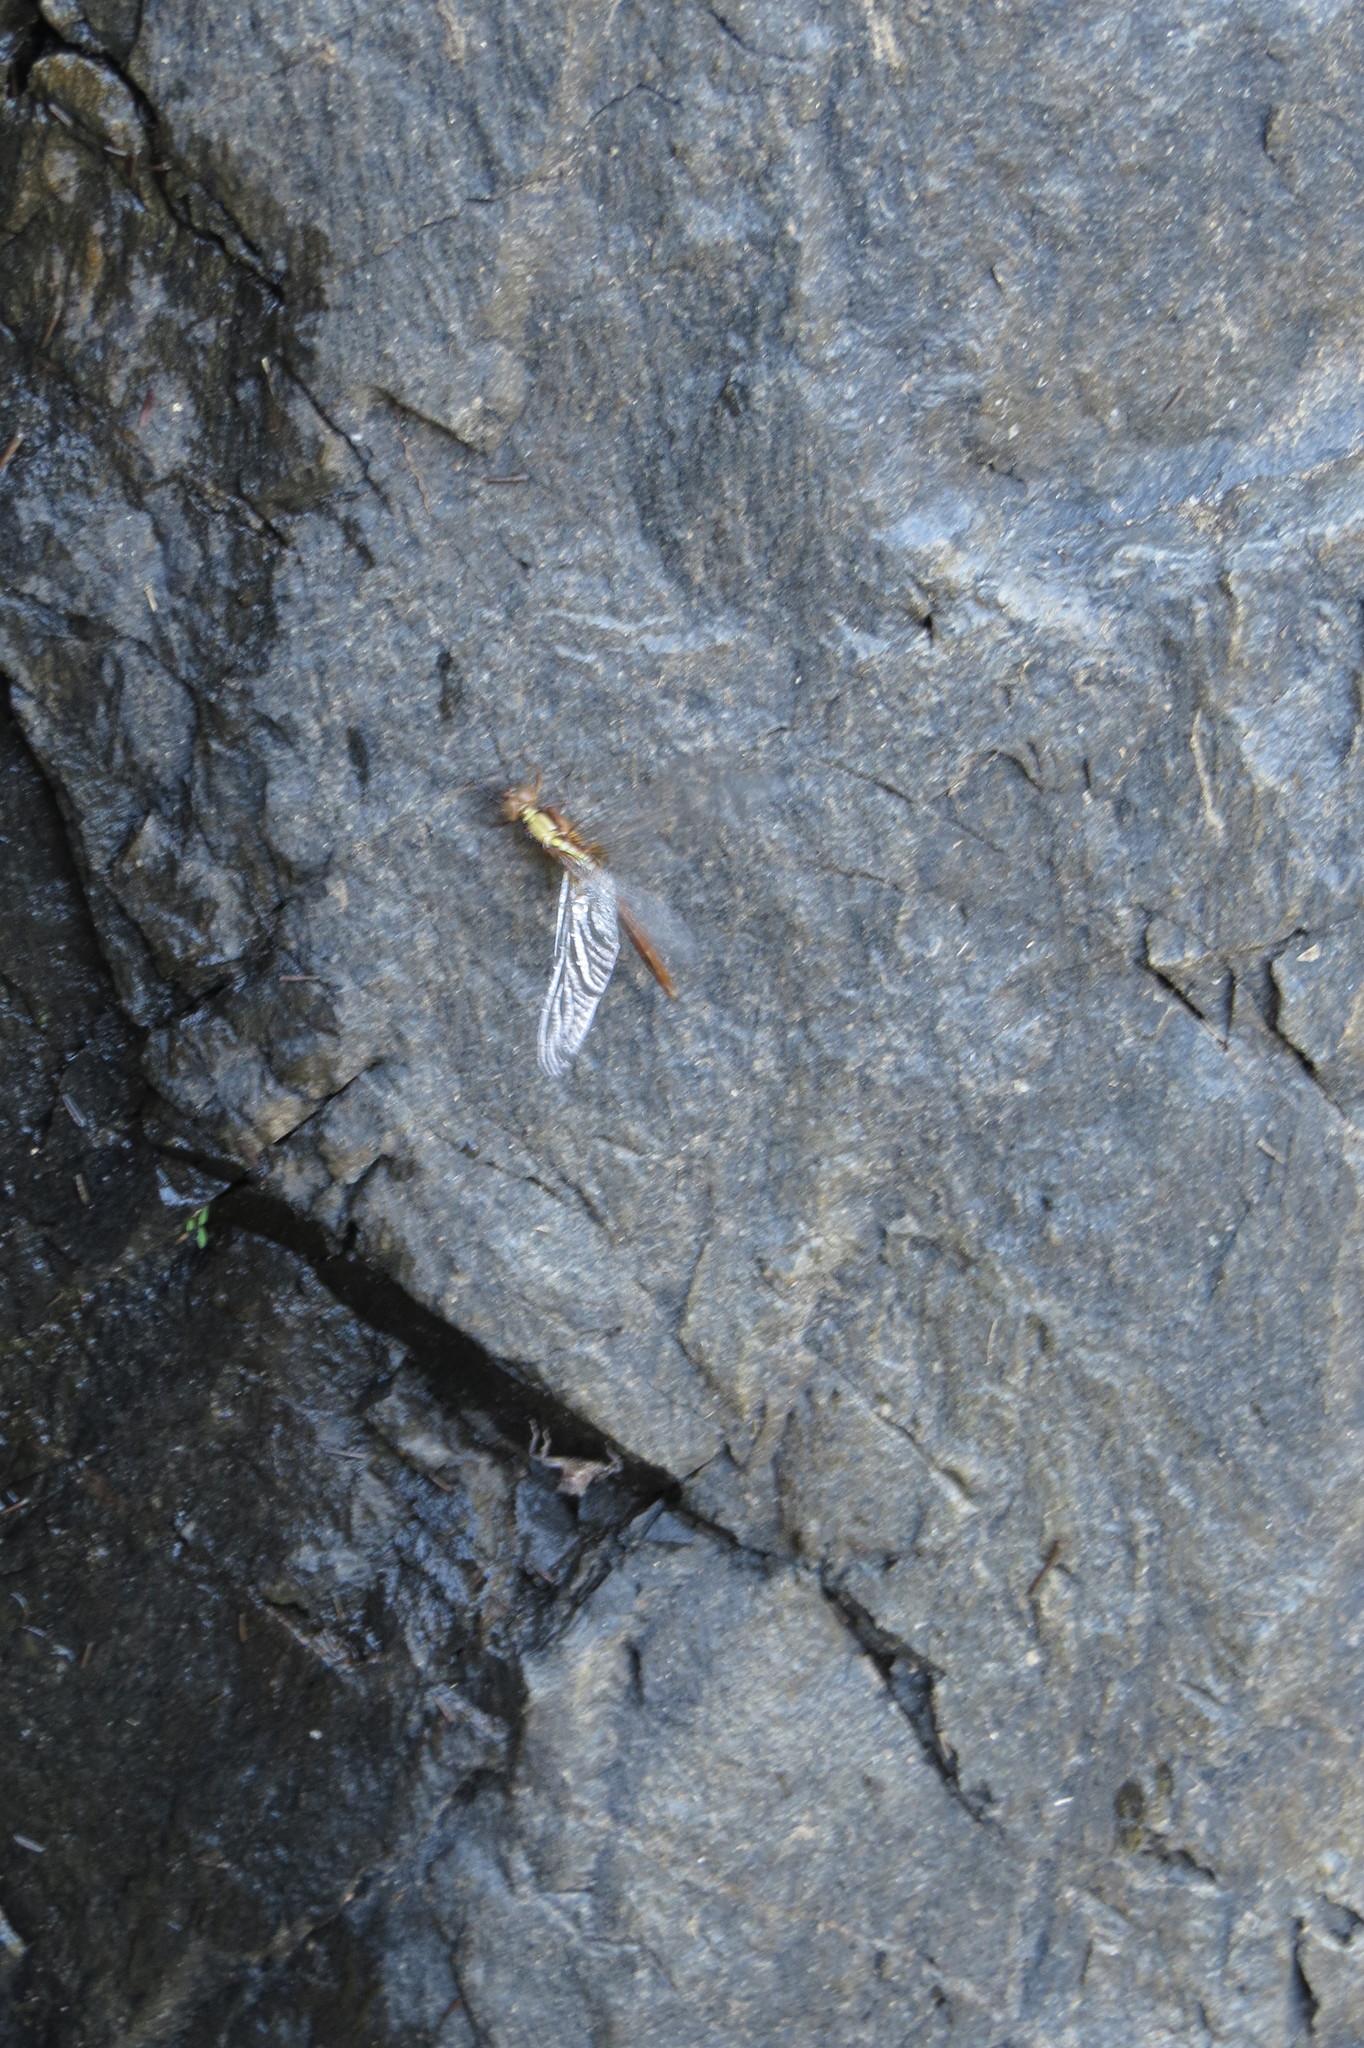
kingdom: Animalia
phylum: Arthropoda
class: Insecta
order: Odonata
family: Libellulidae
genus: Orthetrum
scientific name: Orthetrum villosovittatum
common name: Firery skimmer
